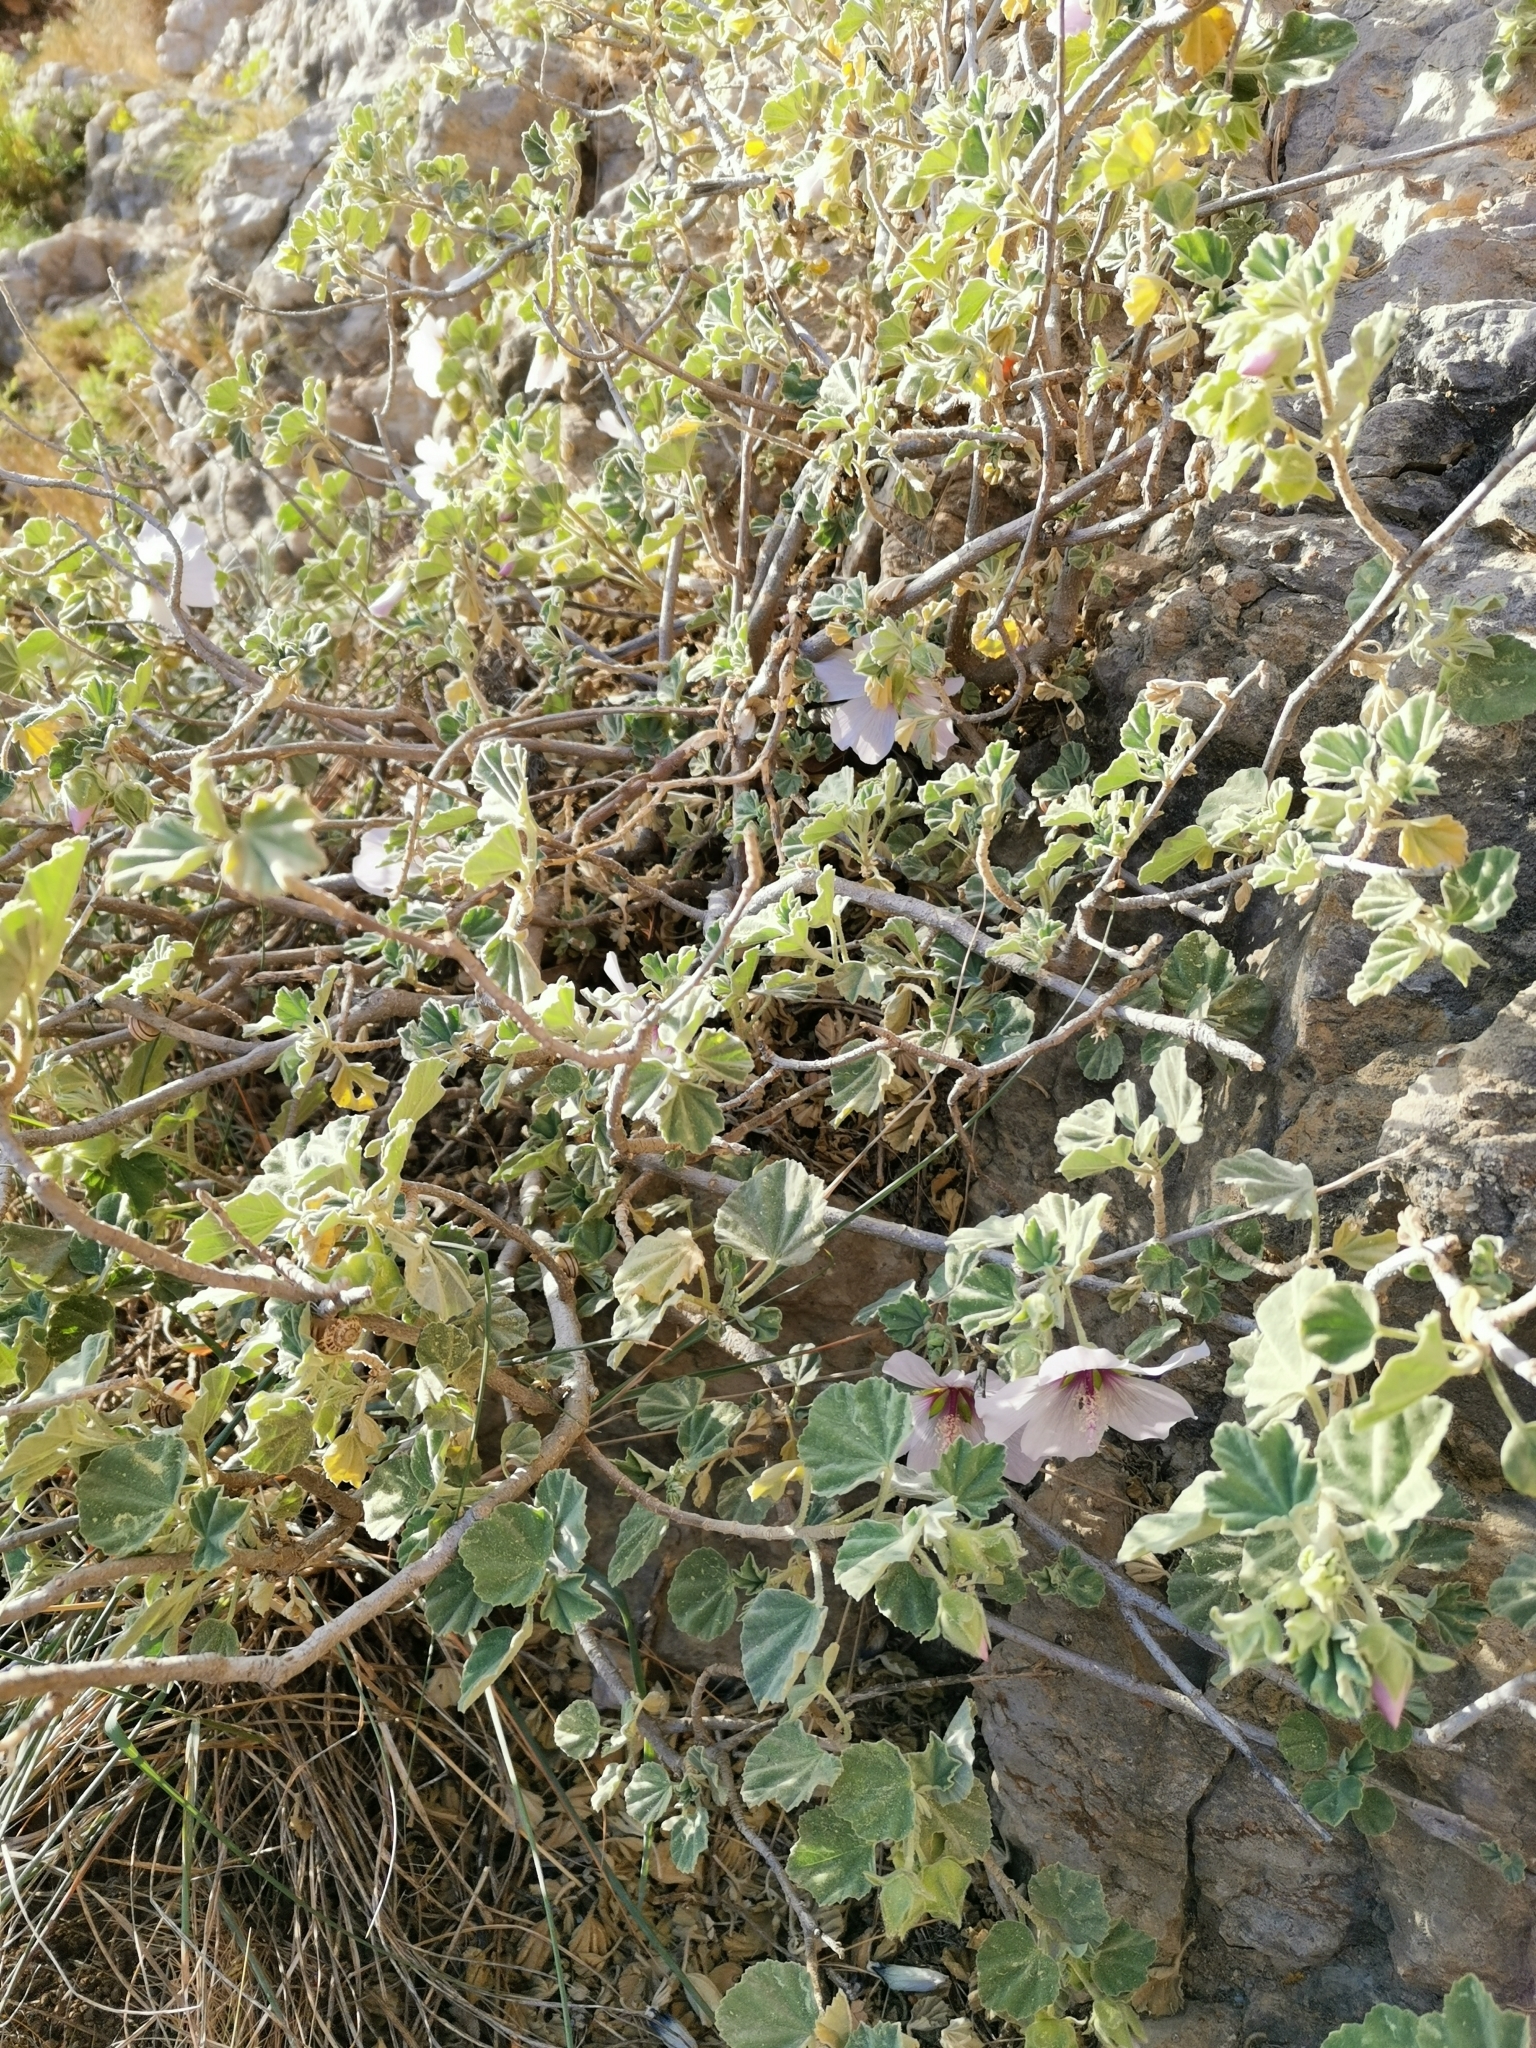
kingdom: Plantae
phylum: Tracheophyta
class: Magnoliopsida
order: Malvales
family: Malvaceae
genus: Malva
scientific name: Malva subovata
